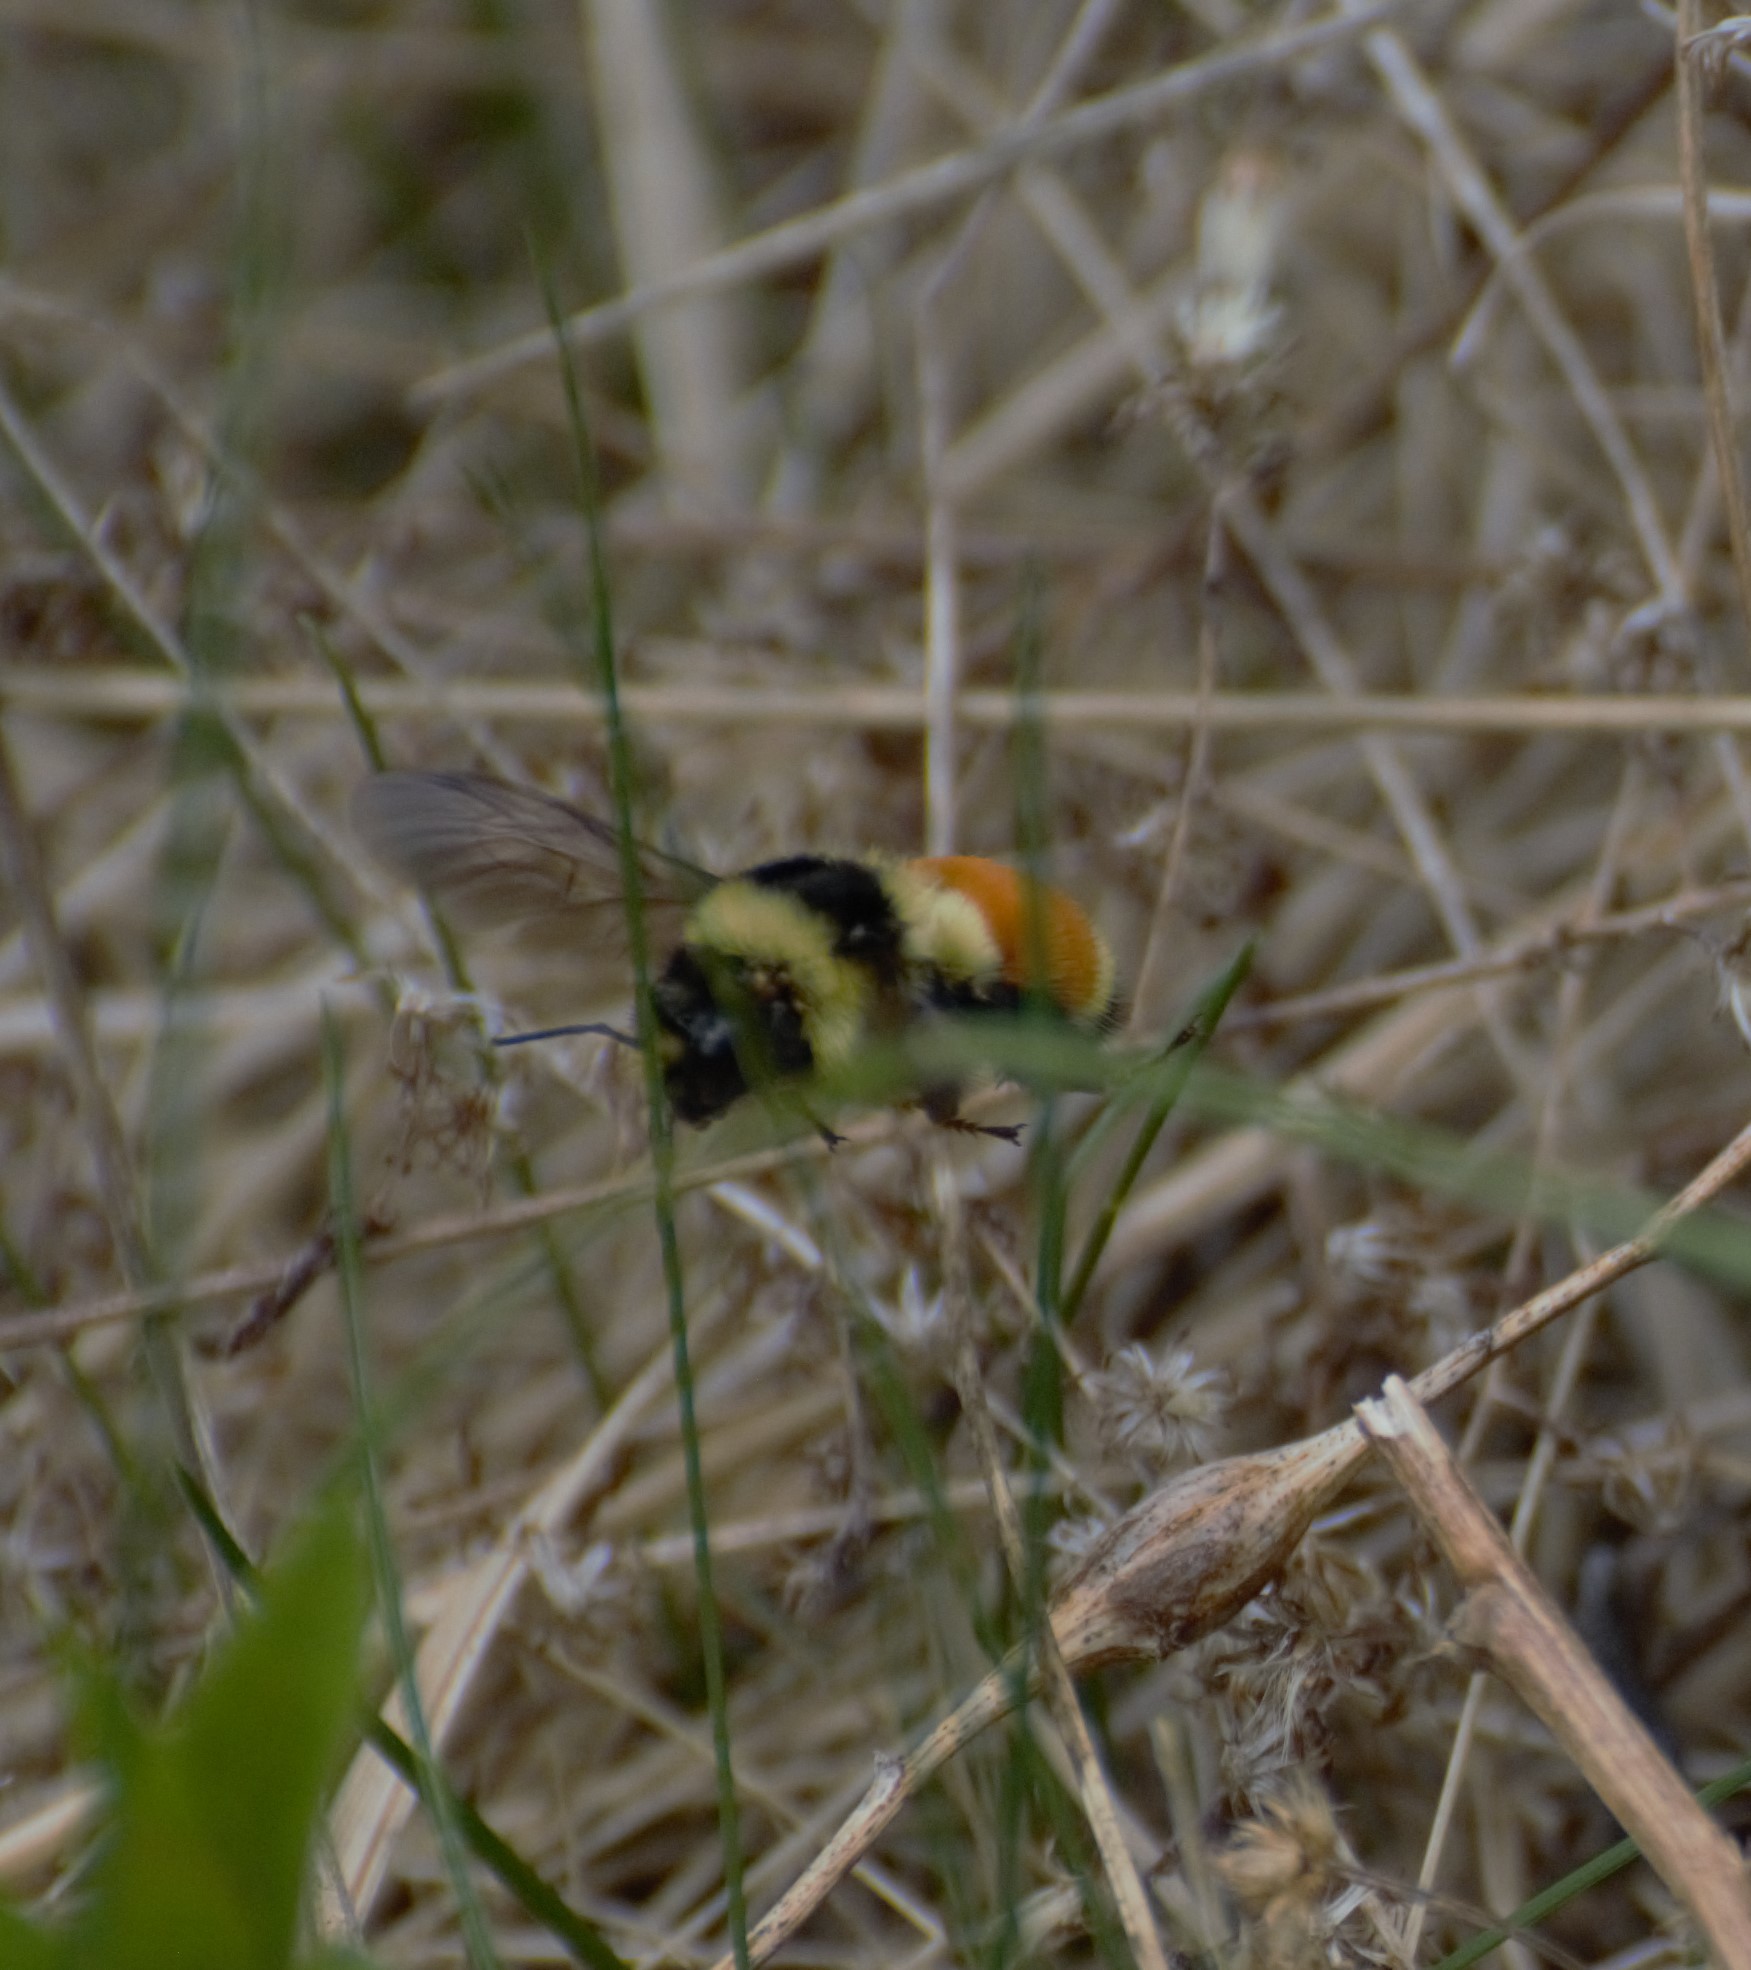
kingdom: Animalia
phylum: Arthropoda
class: Insecta
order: Hymenoptera
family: Apidae
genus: Bombus
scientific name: Bombus ternarius
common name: Tri-colored bumble bee
